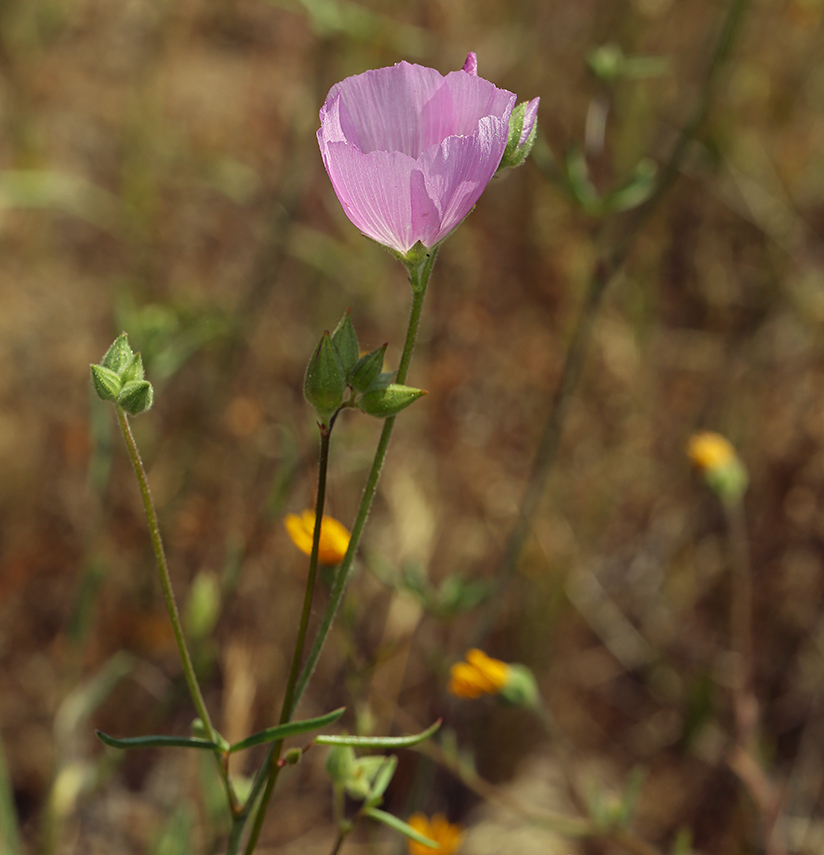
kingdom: Plantae
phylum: Tracheophyta
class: Magnoliopsida
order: Malvales
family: Malvaceae
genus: Sidalcea
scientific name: Sidalcea hartwegii
